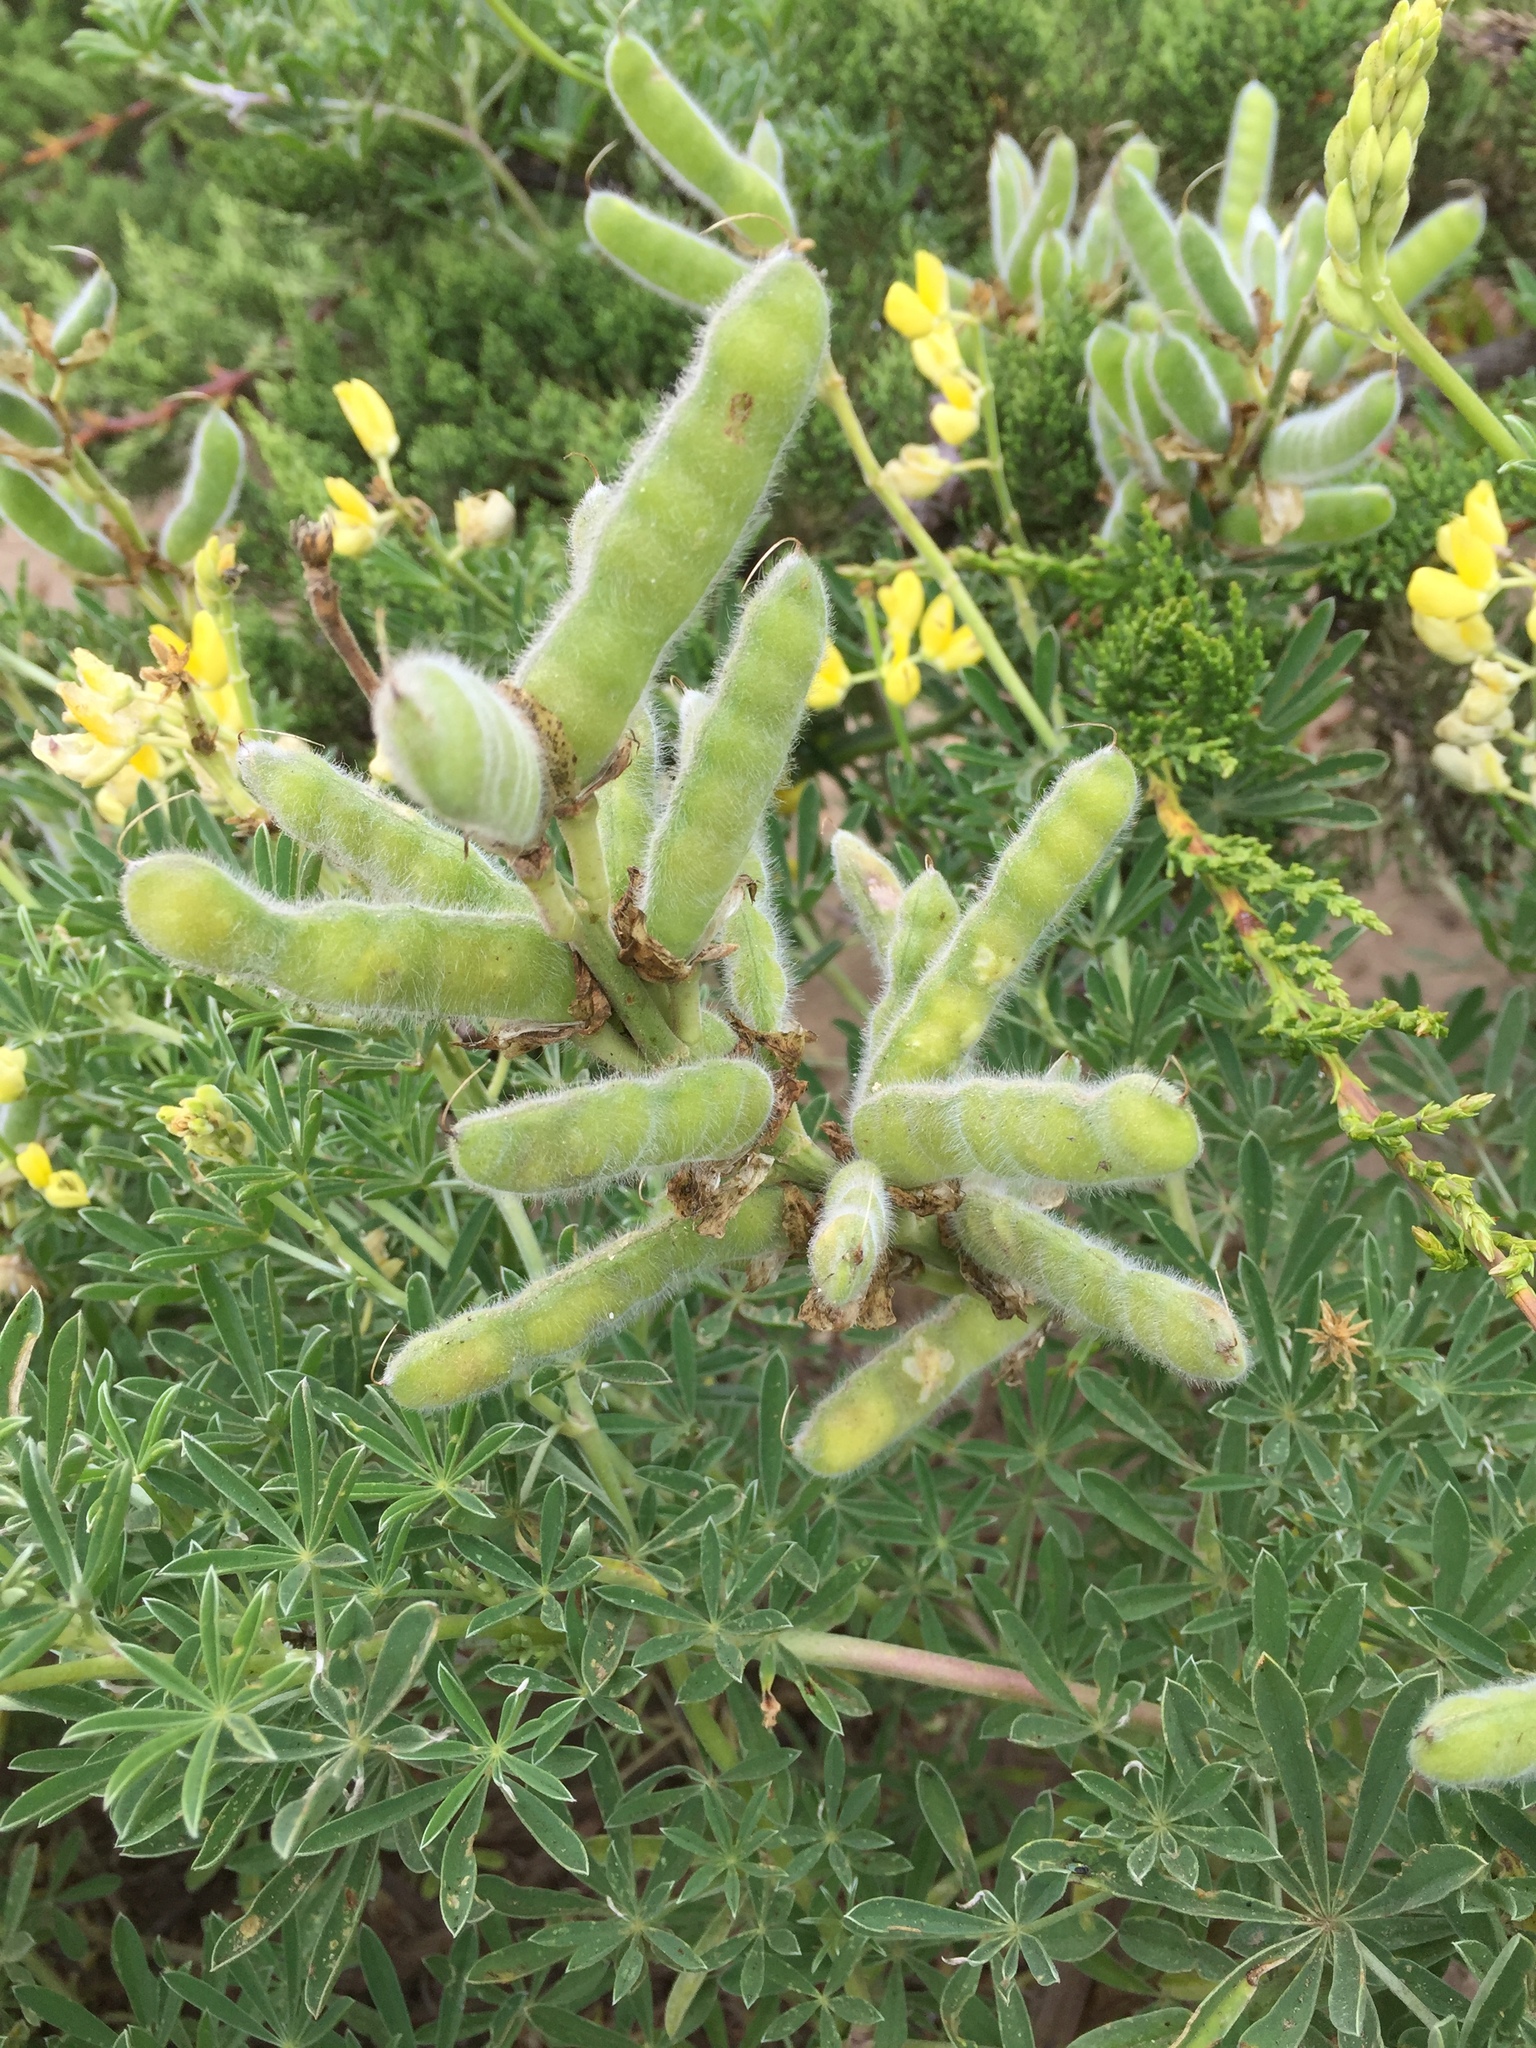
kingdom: Plantae
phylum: Tracheophyta
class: Magnoliopsida
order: Fabales
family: Fabaceae
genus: Lupinus
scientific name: Lupinus arboreus
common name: Yellow bush lupine
